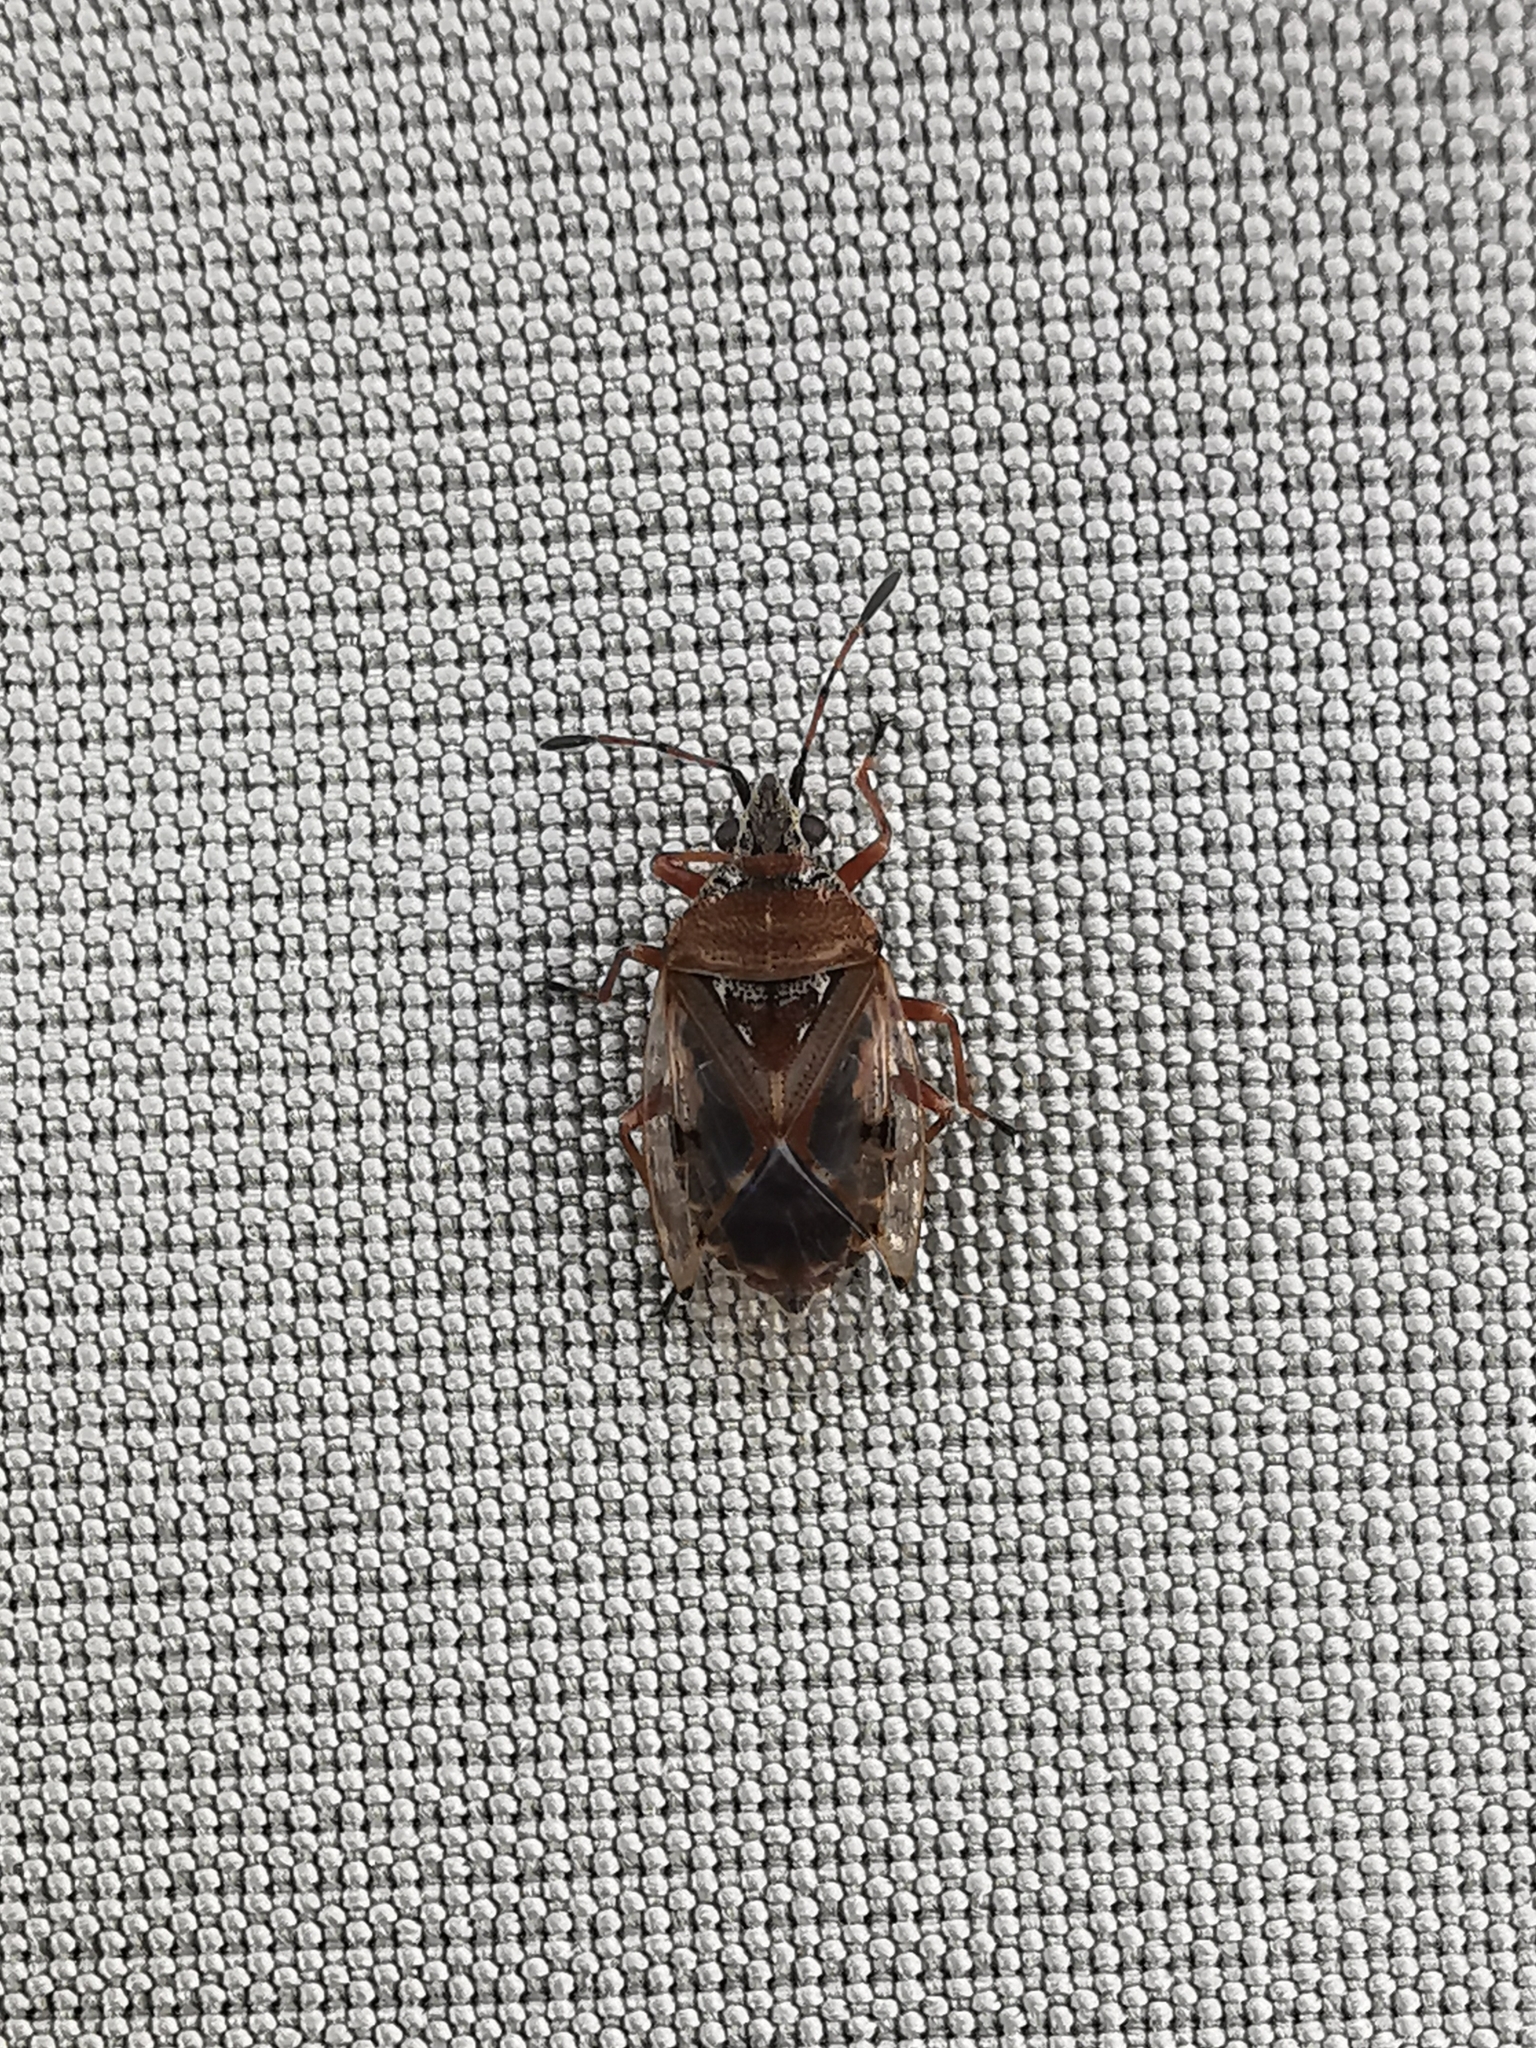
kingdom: Animalia
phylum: Arthropoda
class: Insecta
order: Hemiptera
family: Lygaeidae
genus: Kleidocerys
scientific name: Kleidocerys resedae
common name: Birch catkin bug
